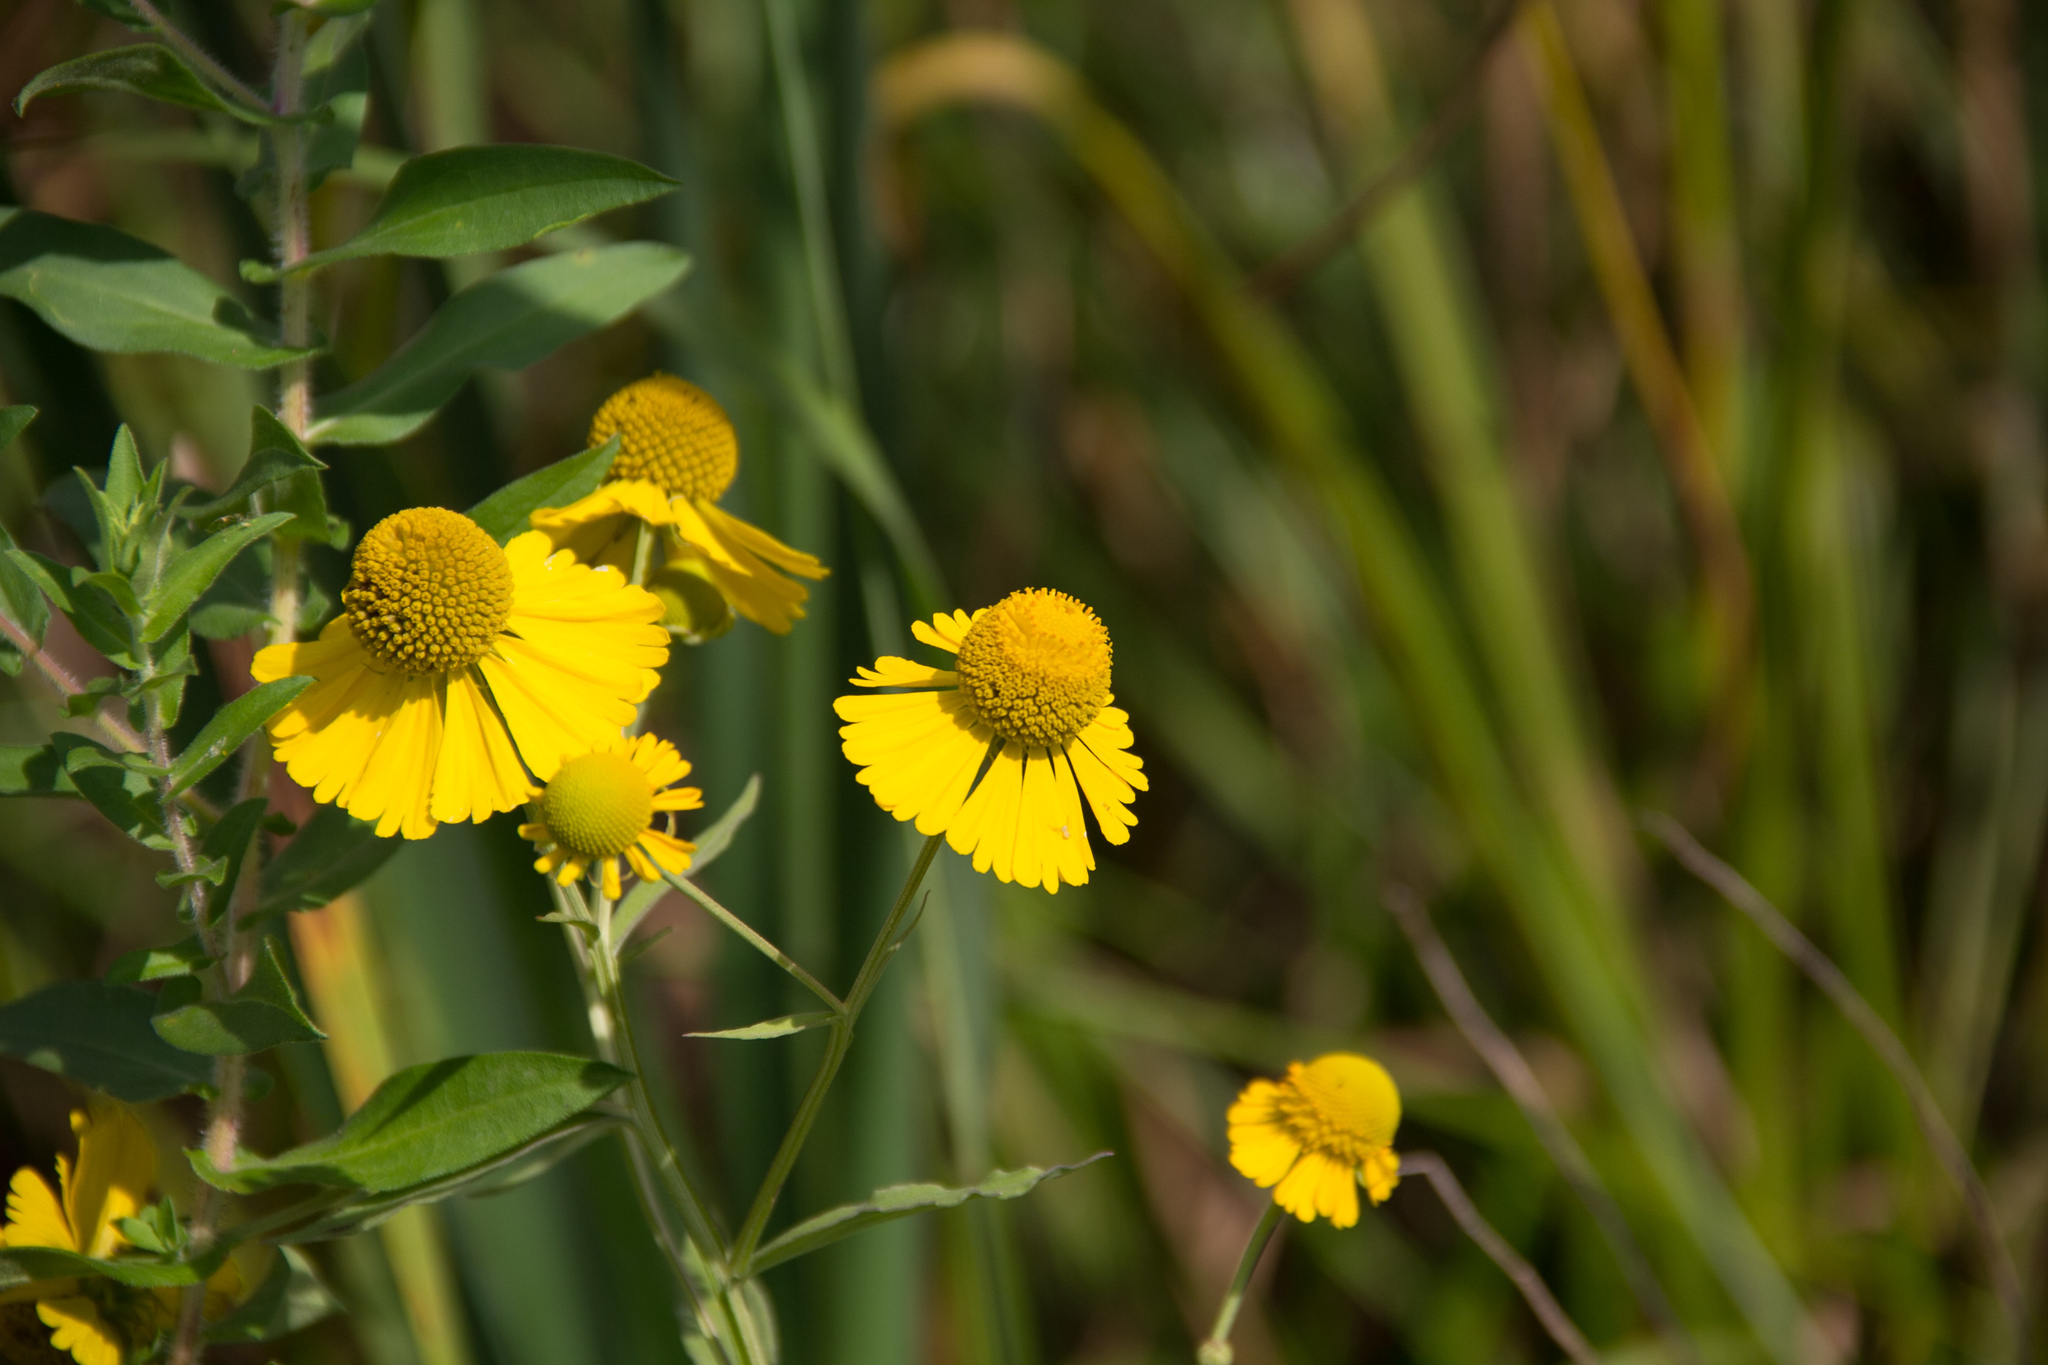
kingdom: Plantae
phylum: Tracheophyta
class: Magnoliopsida
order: Asterales
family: Asteraceae
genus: Helenium
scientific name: Helenium autumnale
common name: Sneezeweed
